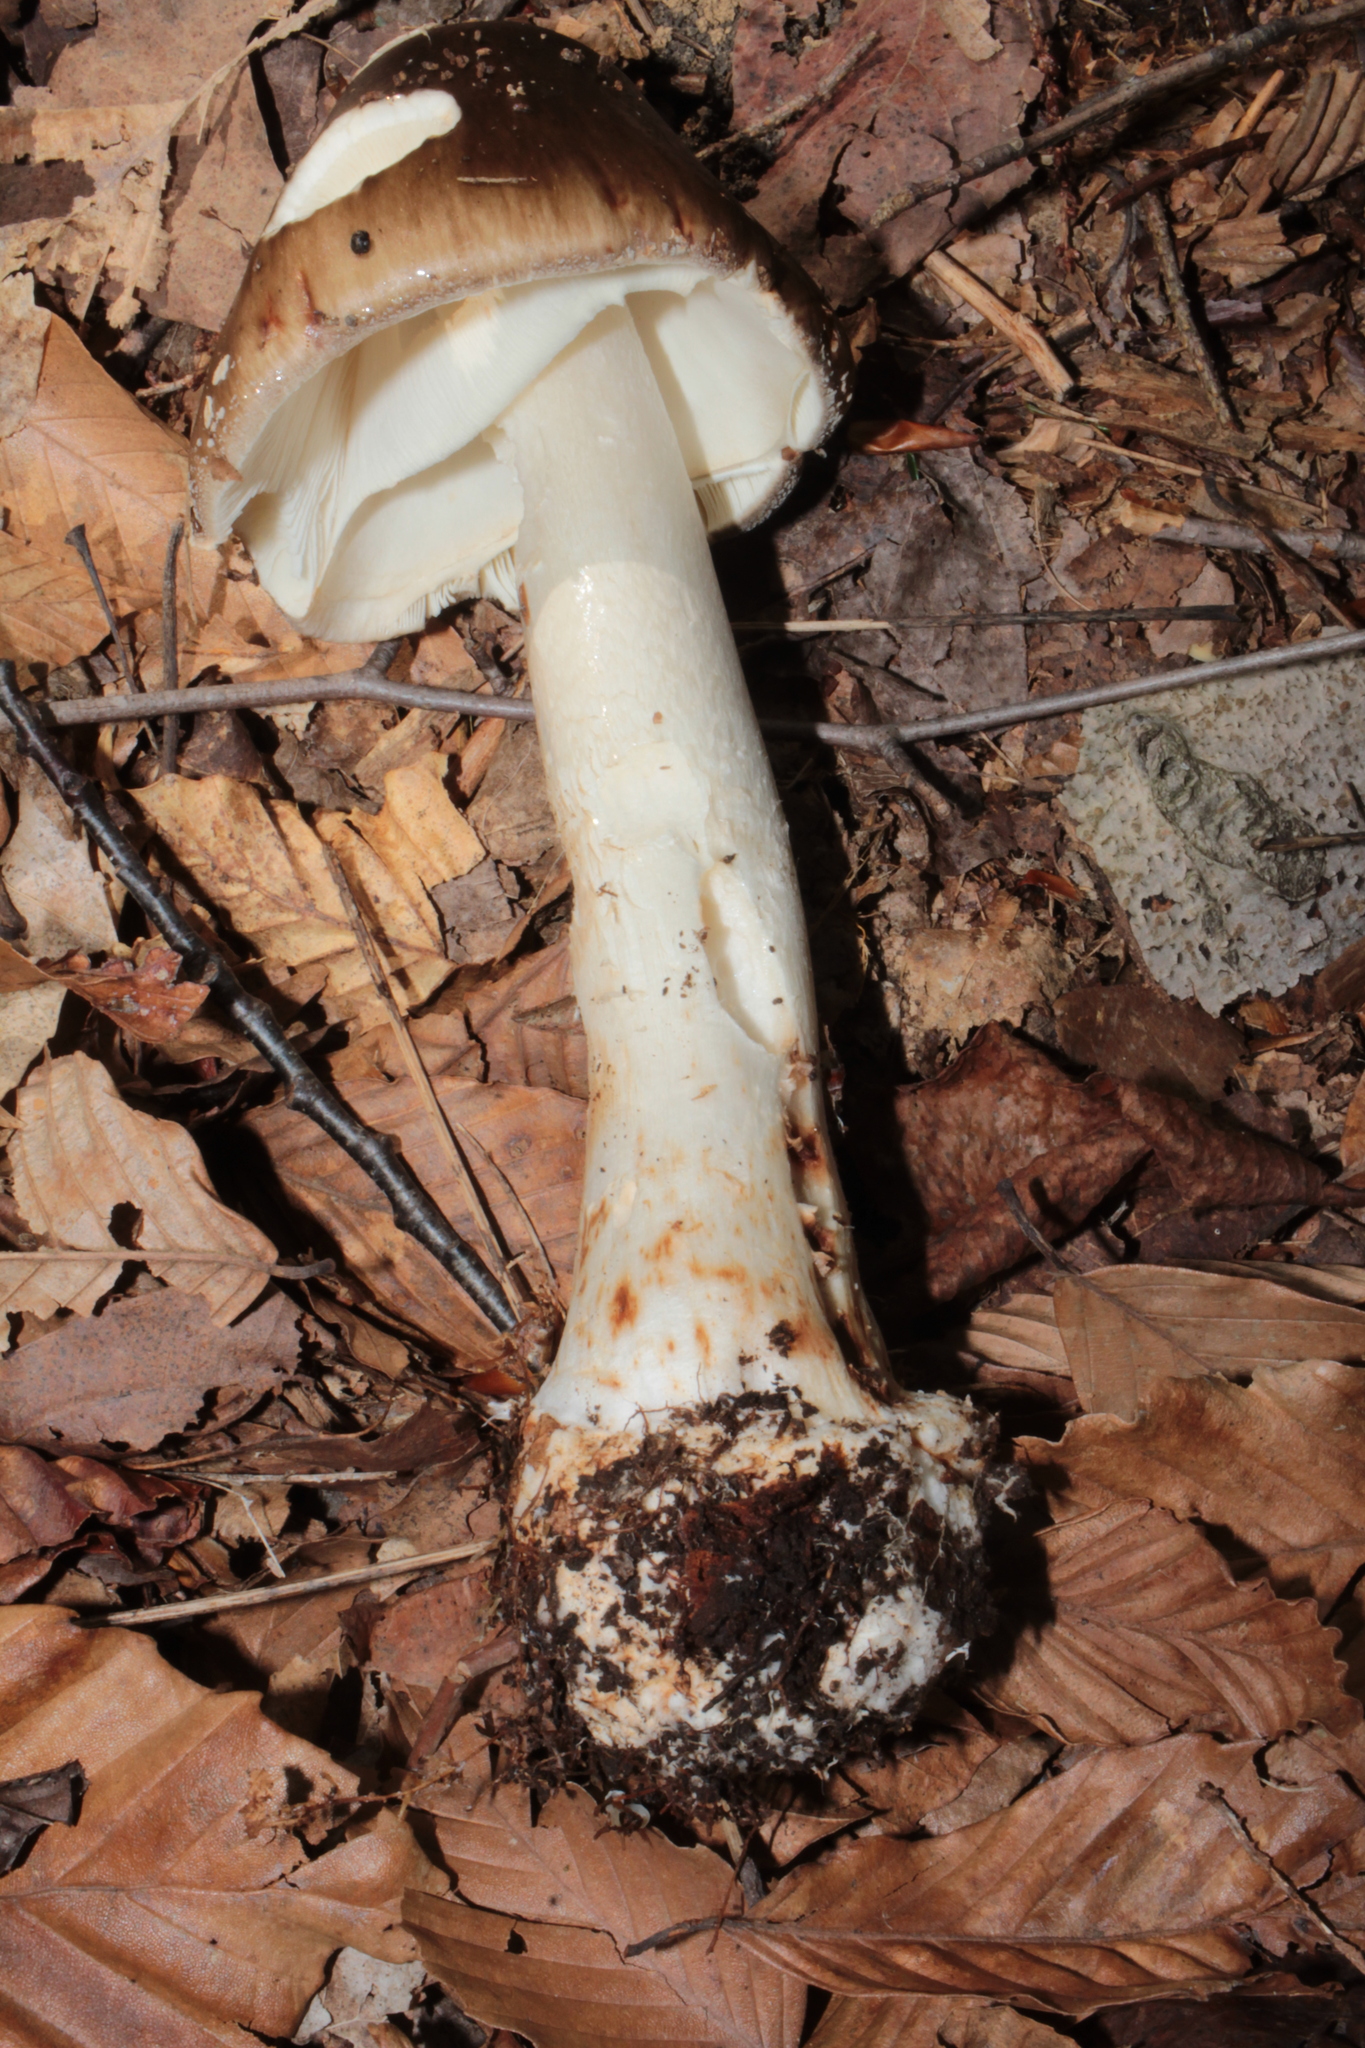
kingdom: Fungi
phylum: Basidiomycota
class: Agaricomycetes
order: Agaricales
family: Amanitaceae
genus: Amanita
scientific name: Amanita brunnescens
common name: Brown american star-footed amanita
